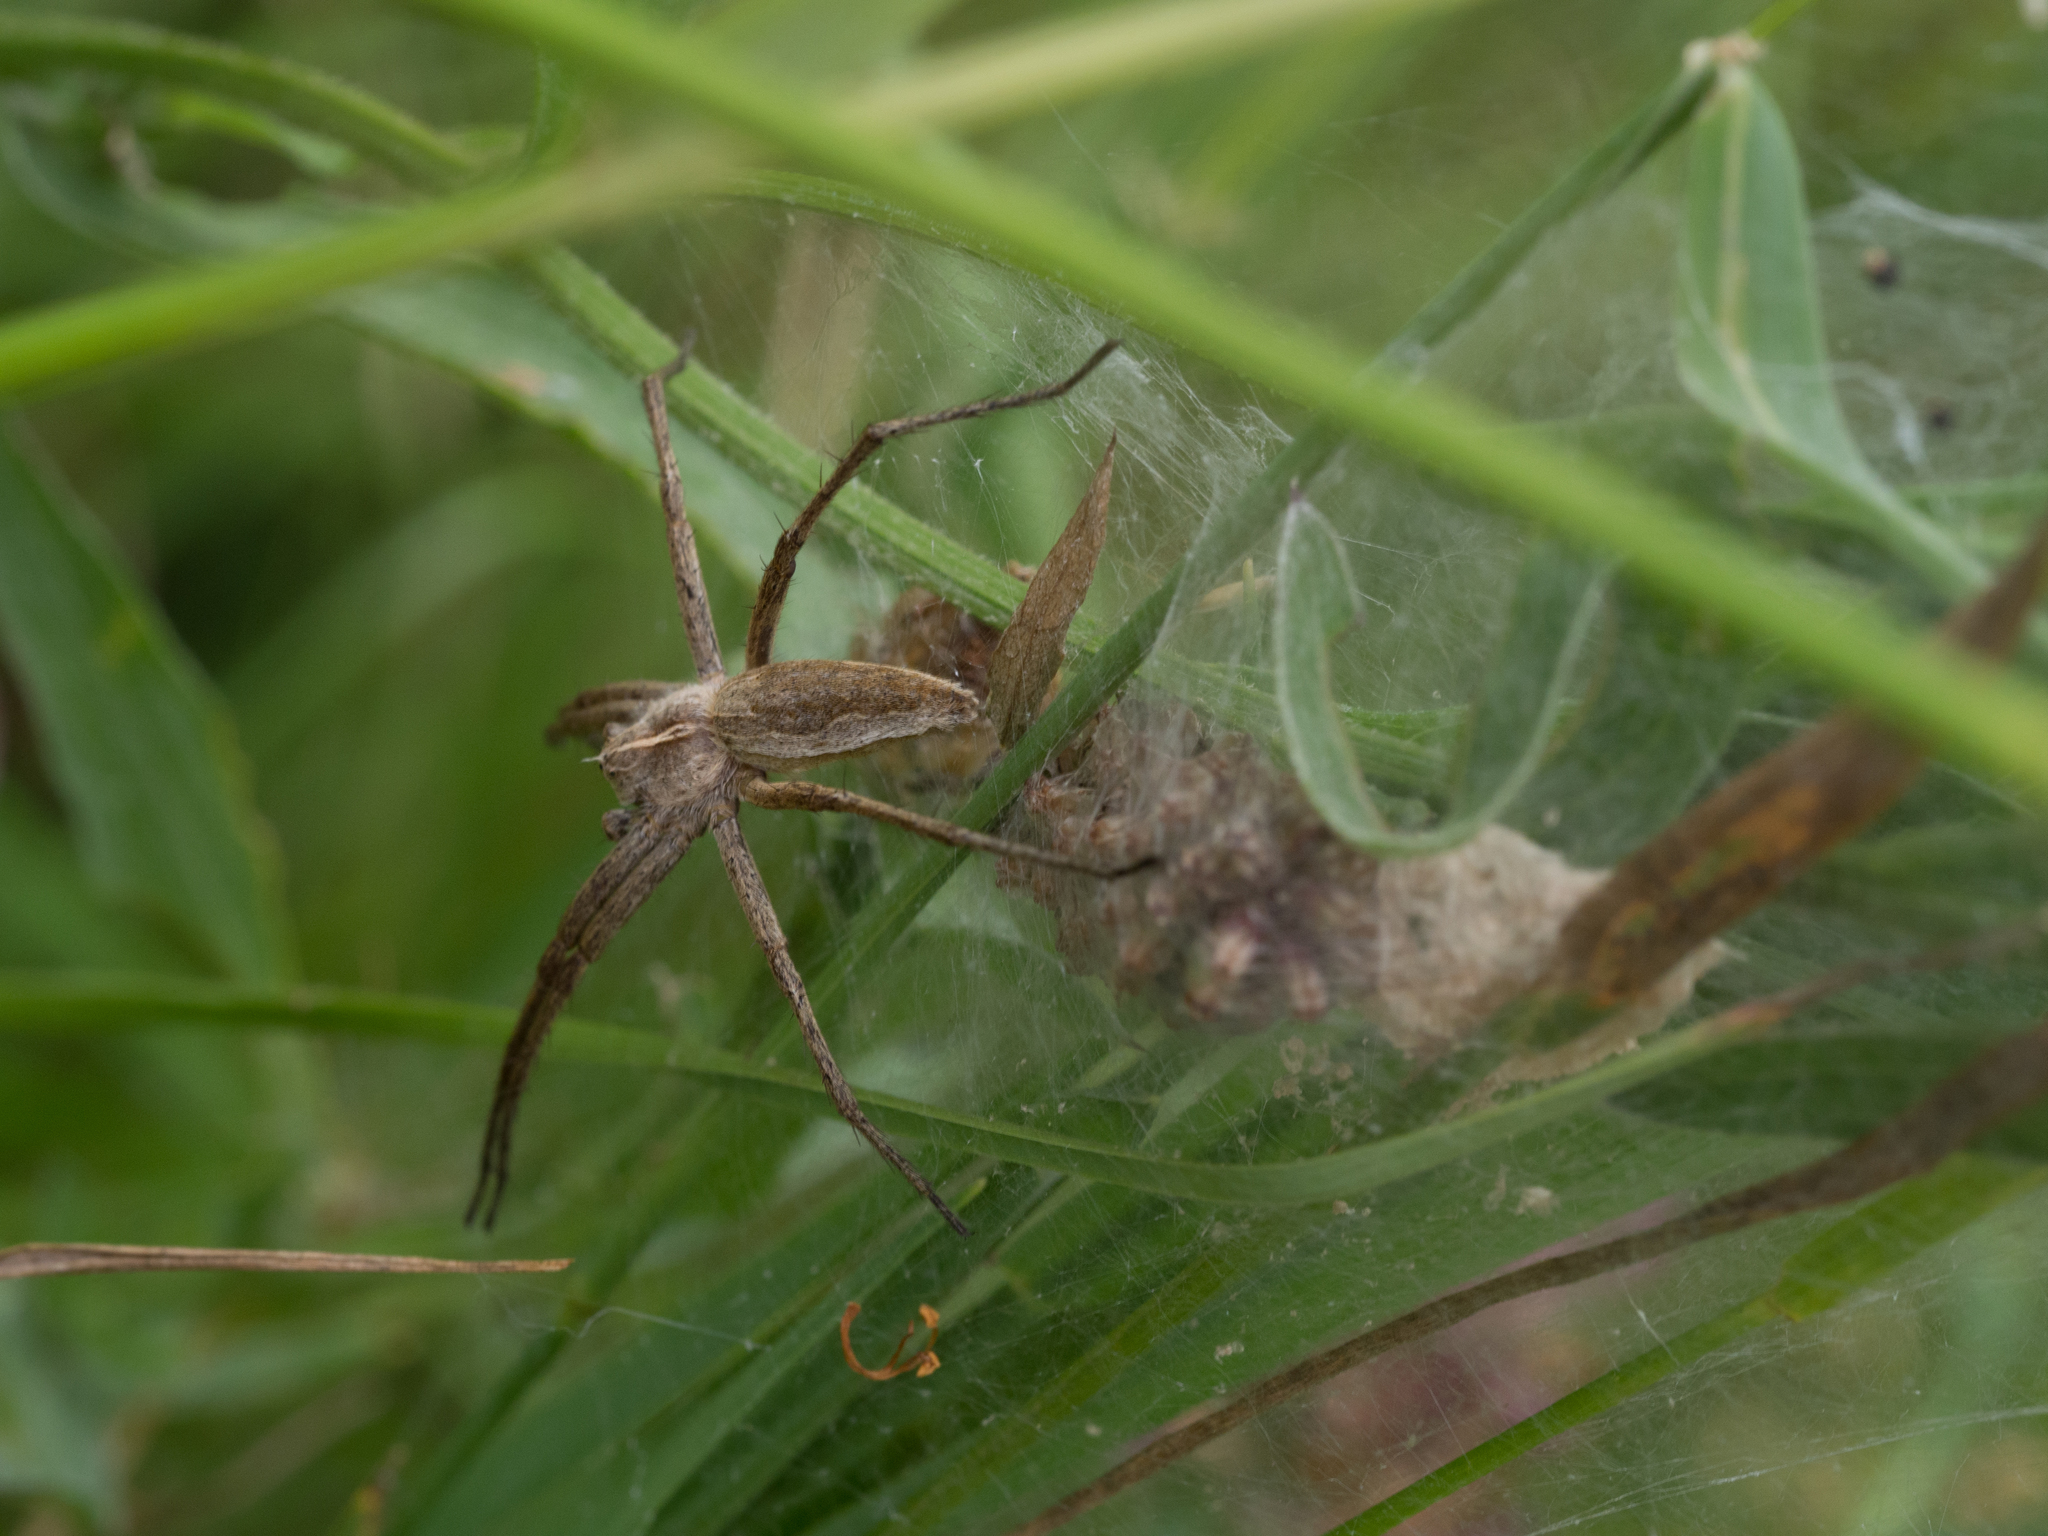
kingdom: Animalia
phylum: Arthropoda
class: Arachnida
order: Araneae
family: Pisauridae
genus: Pisaura
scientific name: Pisaura mirabilis
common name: Tent spider
